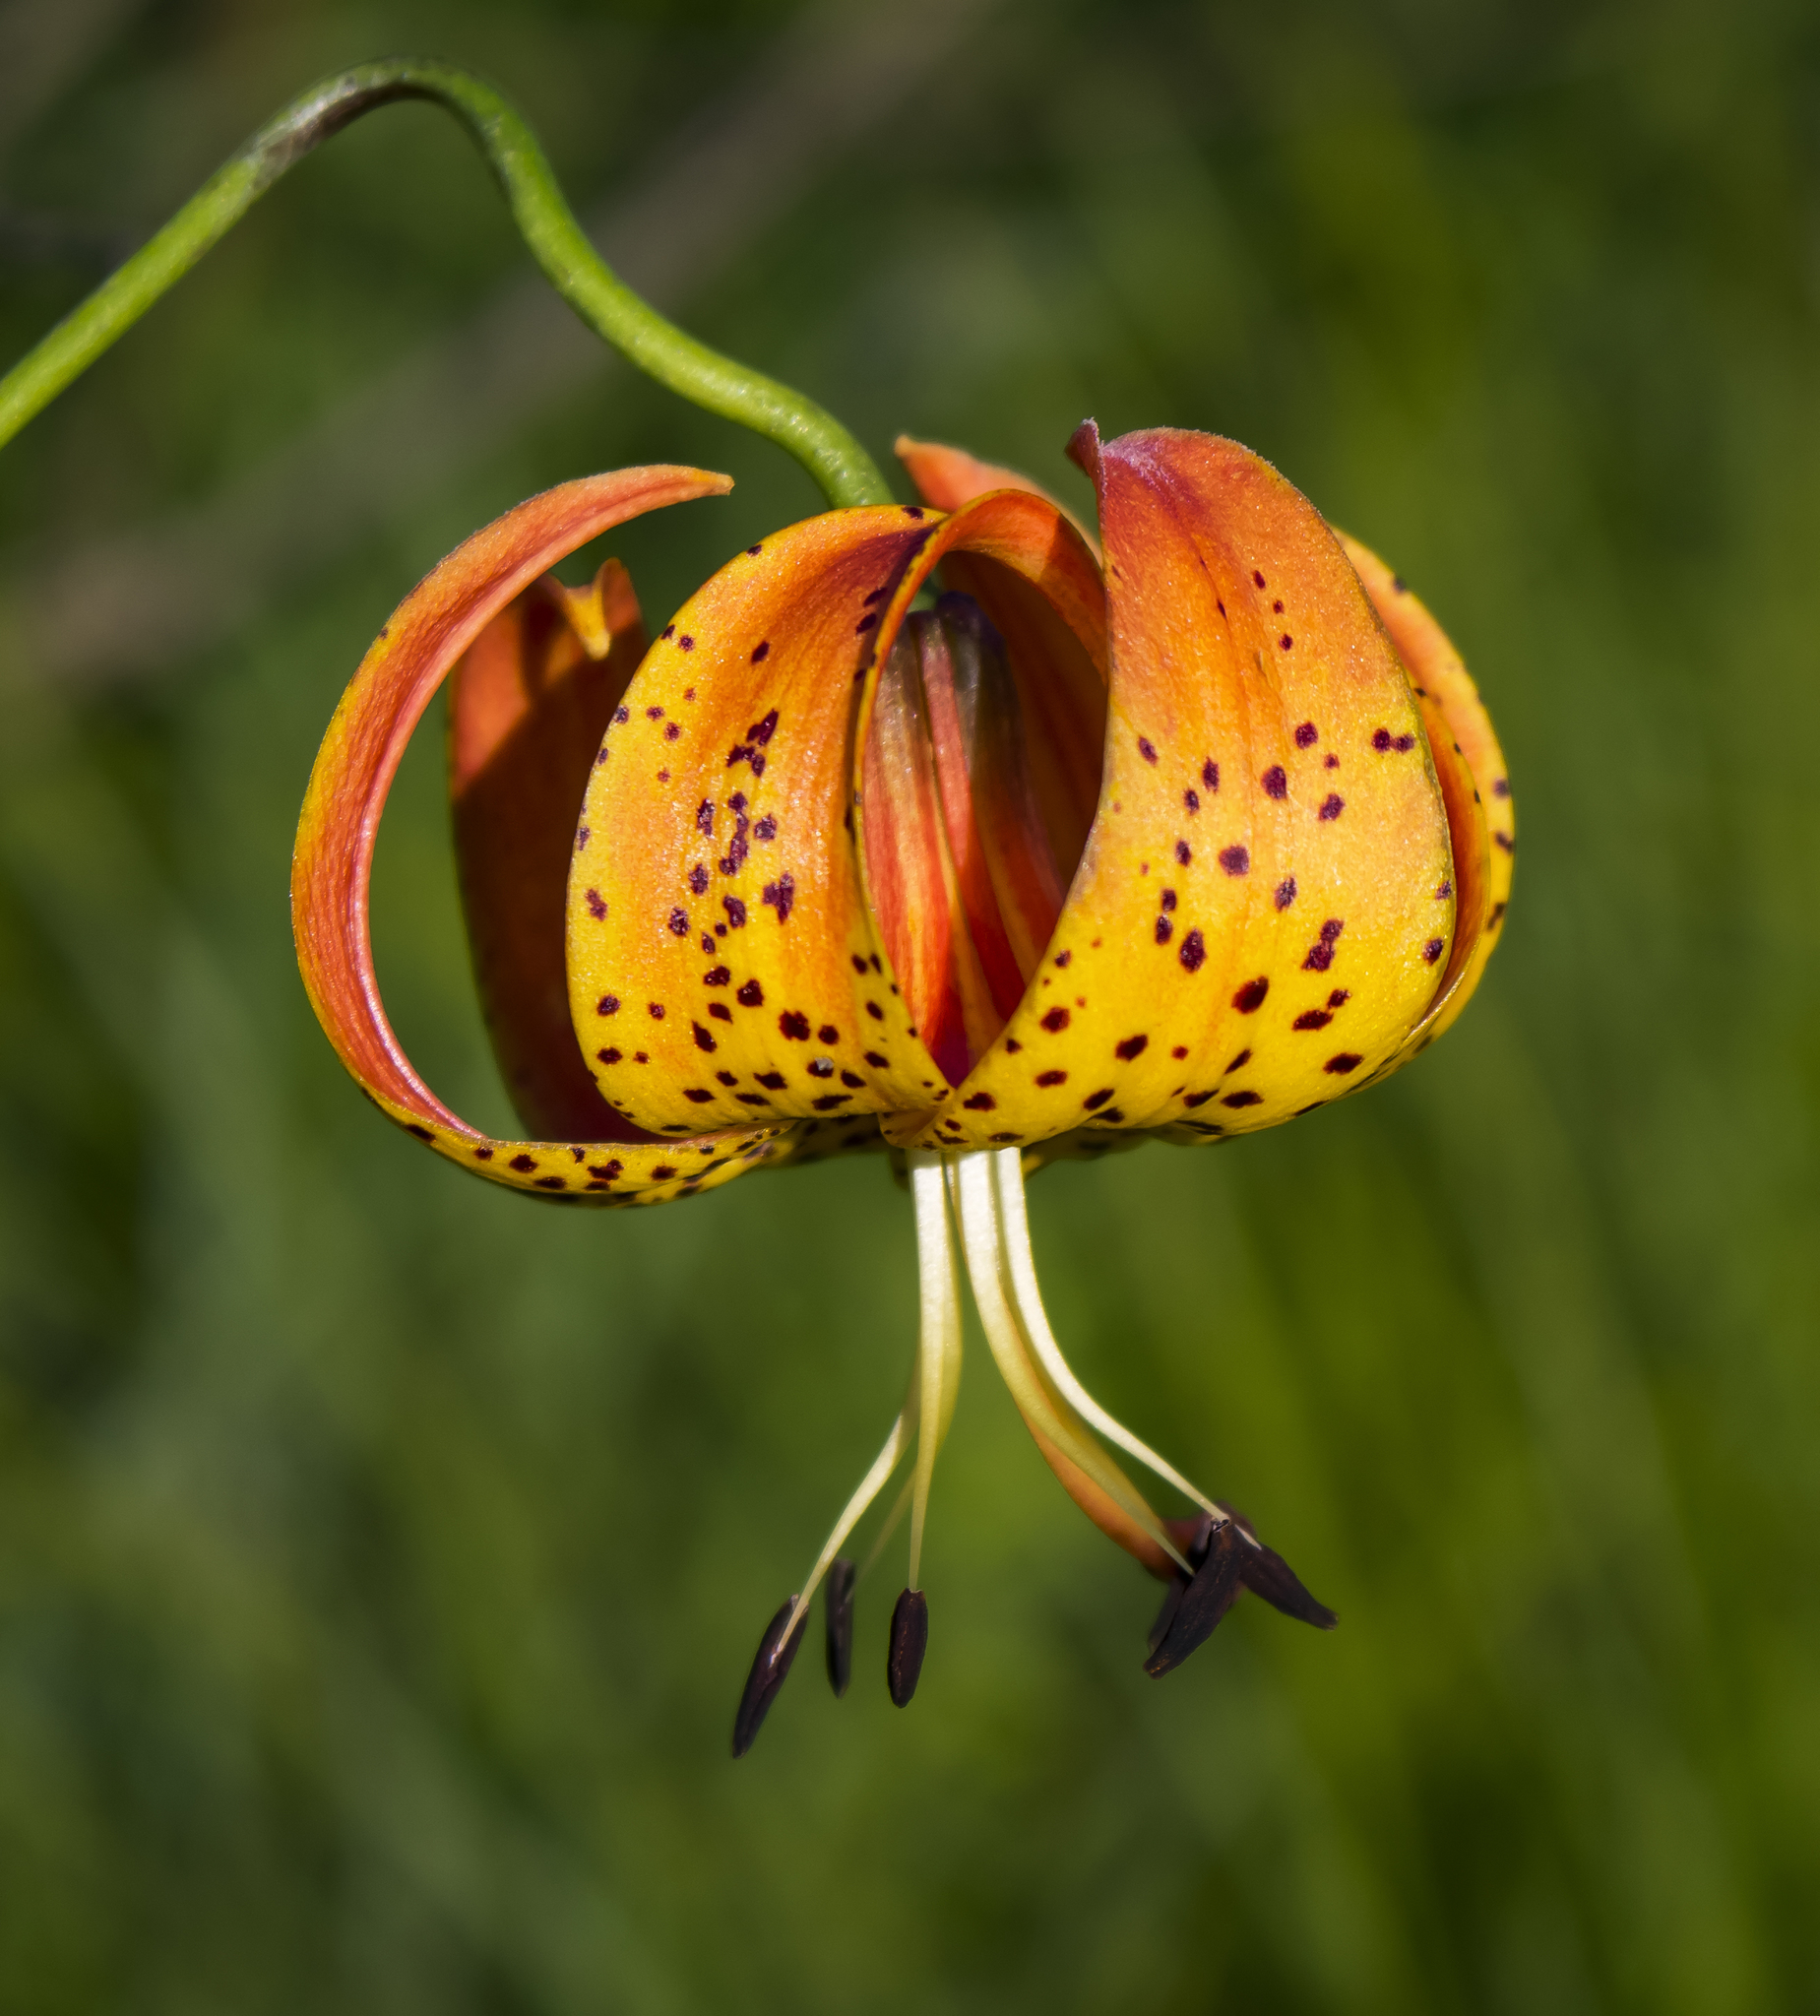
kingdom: Plantae
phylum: Tracheophyta
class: Liliopsida
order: Liliales
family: Liliaceae
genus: Lilium
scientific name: Lilium michiganense
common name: Michigan lily
